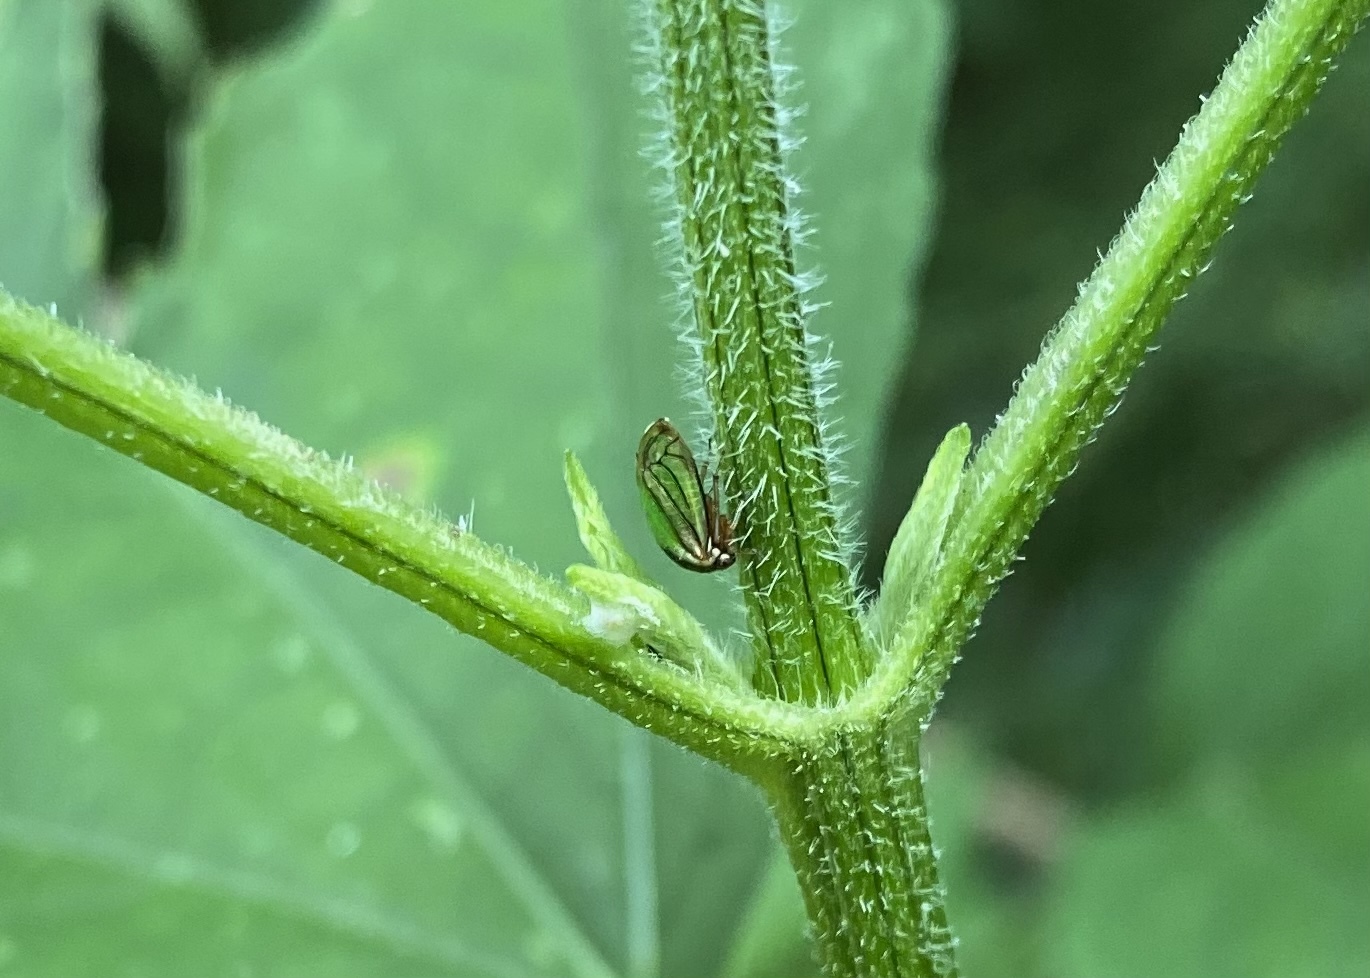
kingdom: Animalia
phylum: Arthropoda
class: Insecta
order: Hemiptera
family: Membracidae
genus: Acutalis
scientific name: Acutalis tartarea
